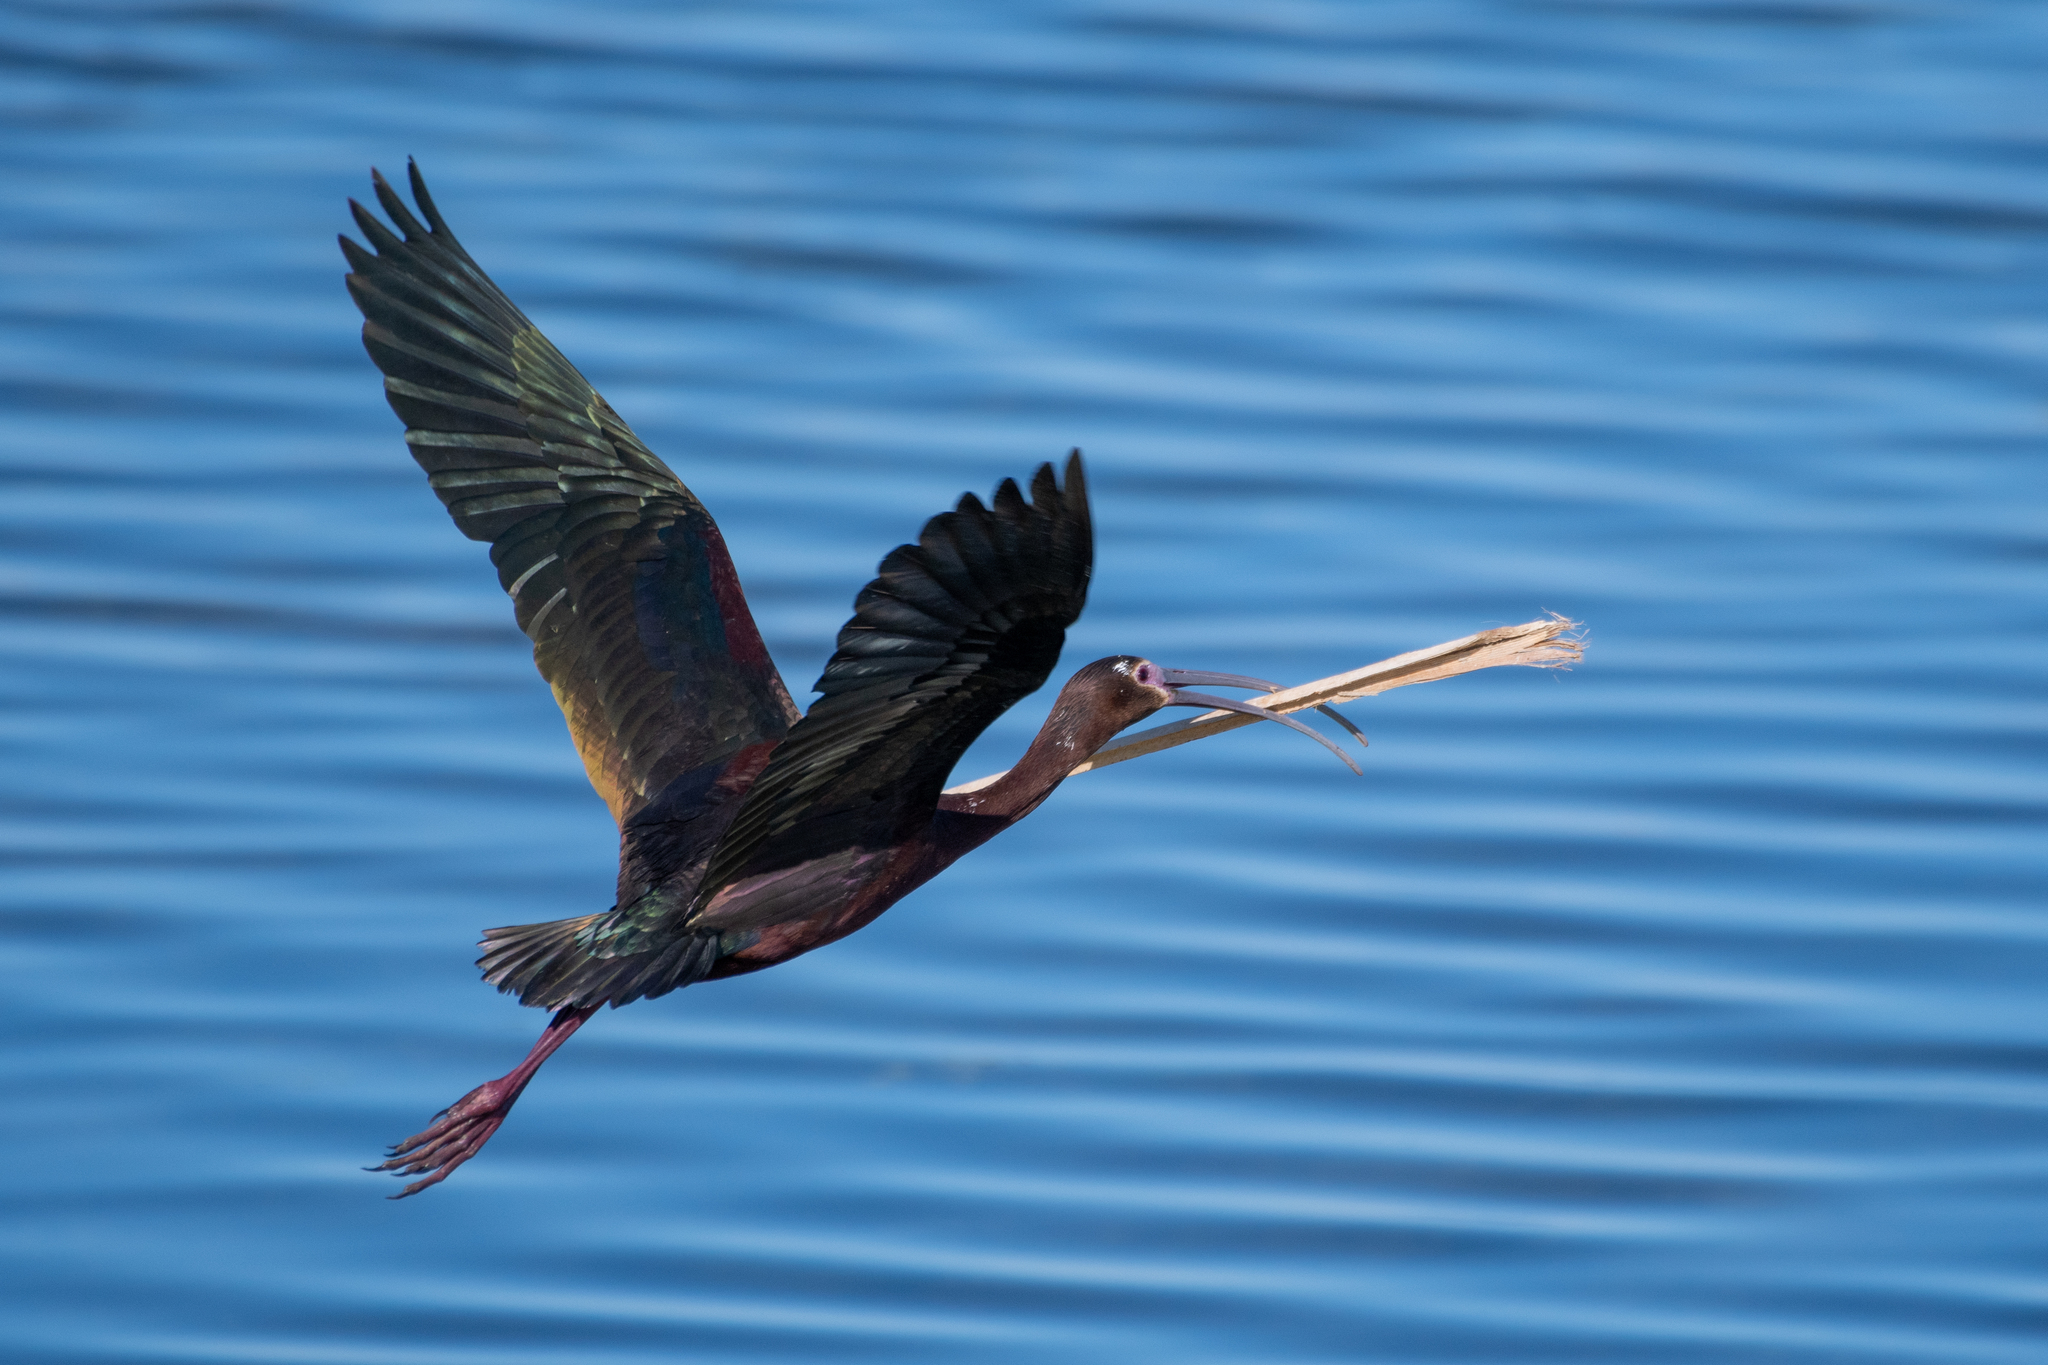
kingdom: Animalia
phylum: Chordata
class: Aves
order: Pelecaniformes
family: Threskiornithidae
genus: Plegadis
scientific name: Plegadis chihi
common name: White-faced ibis
